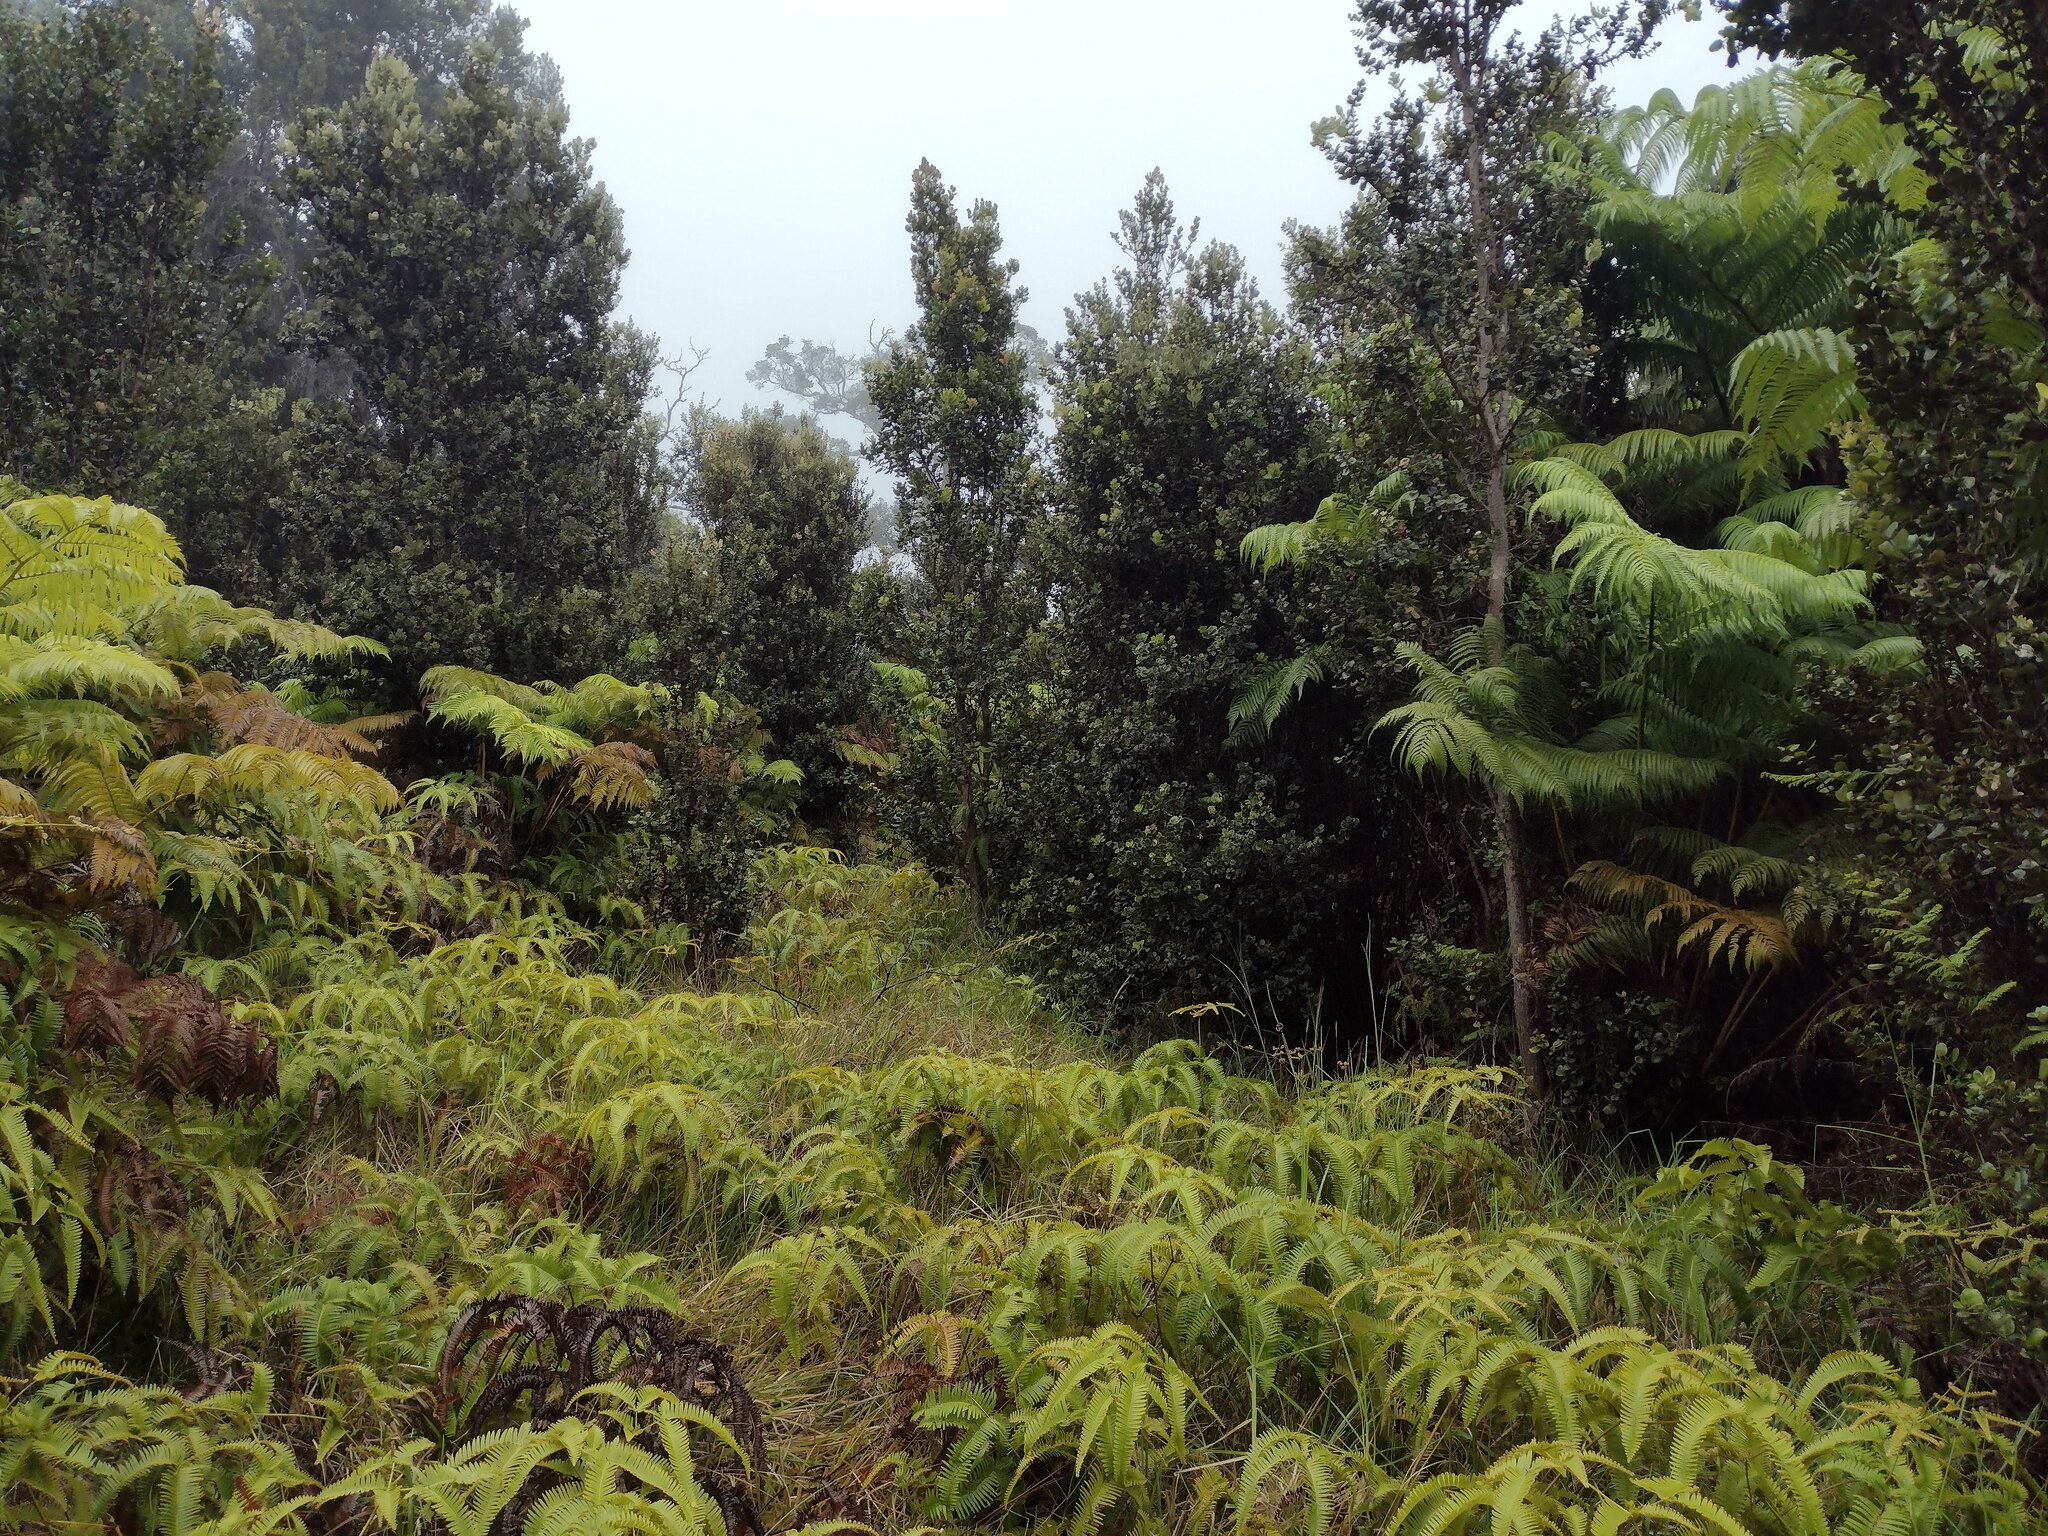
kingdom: Plantae
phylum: Tracheophyta
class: Polypodiopsida
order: Gleicheniales
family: Gleicheniaceae
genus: Dicranopteris
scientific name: Dicranopteris linearis
